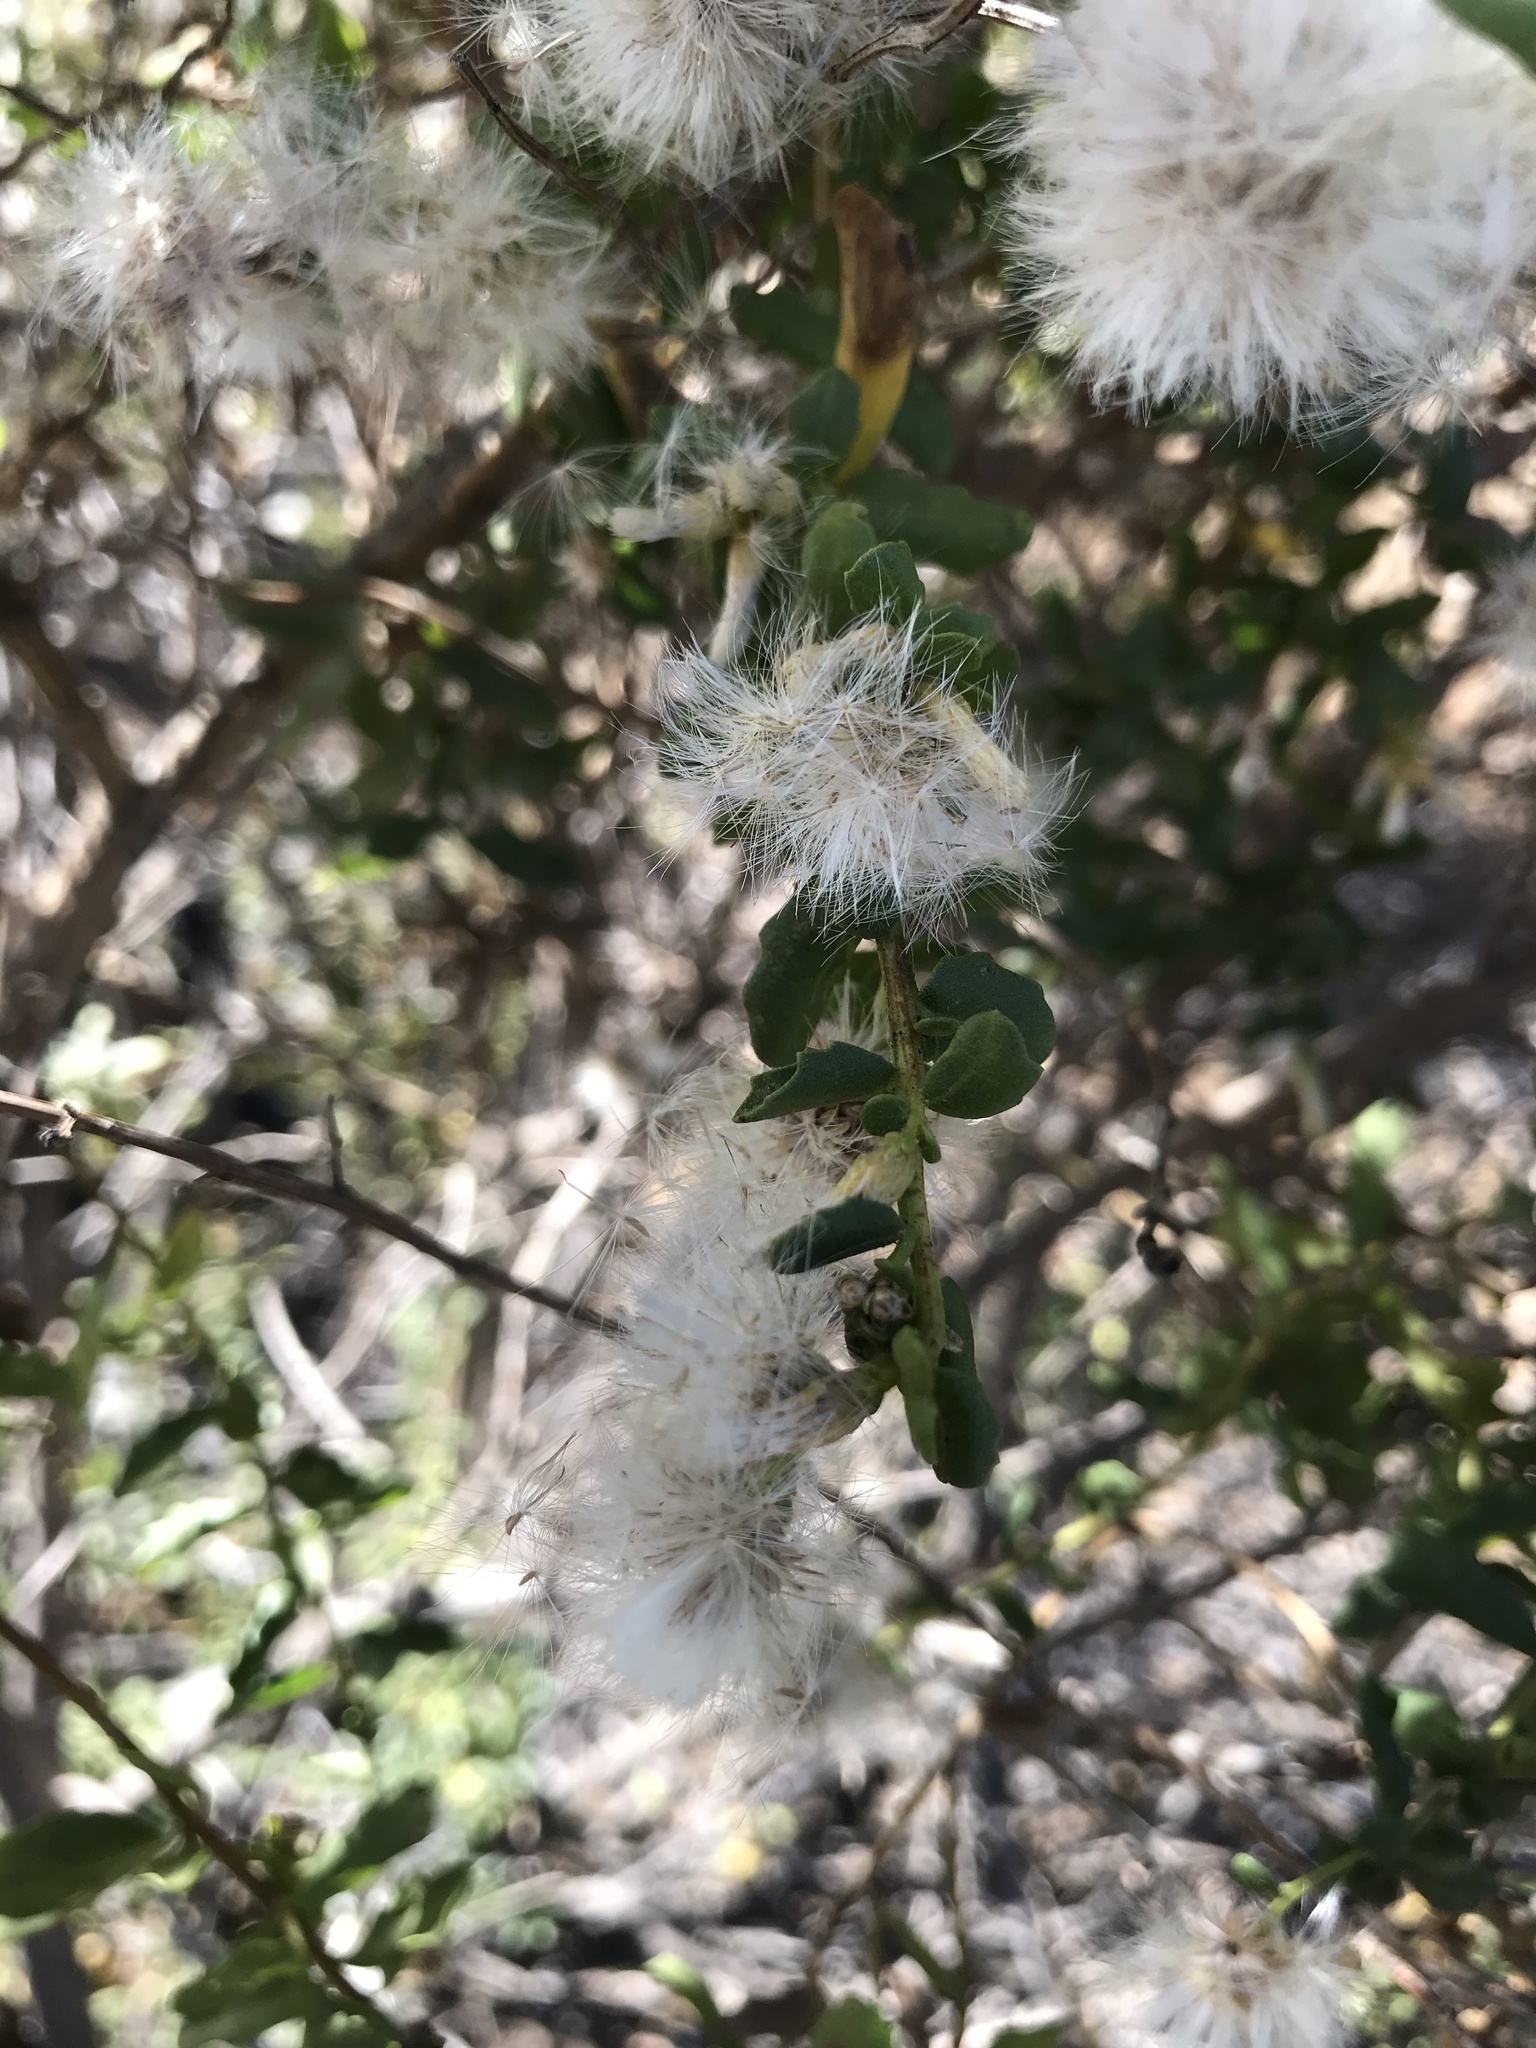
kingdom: Plantae
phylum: Tracheophyta
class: Magnoliopsida
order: Asterales
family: Asteraceae
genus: Baccharis
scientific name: Baccharis pilularis
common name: Coyotebrush
